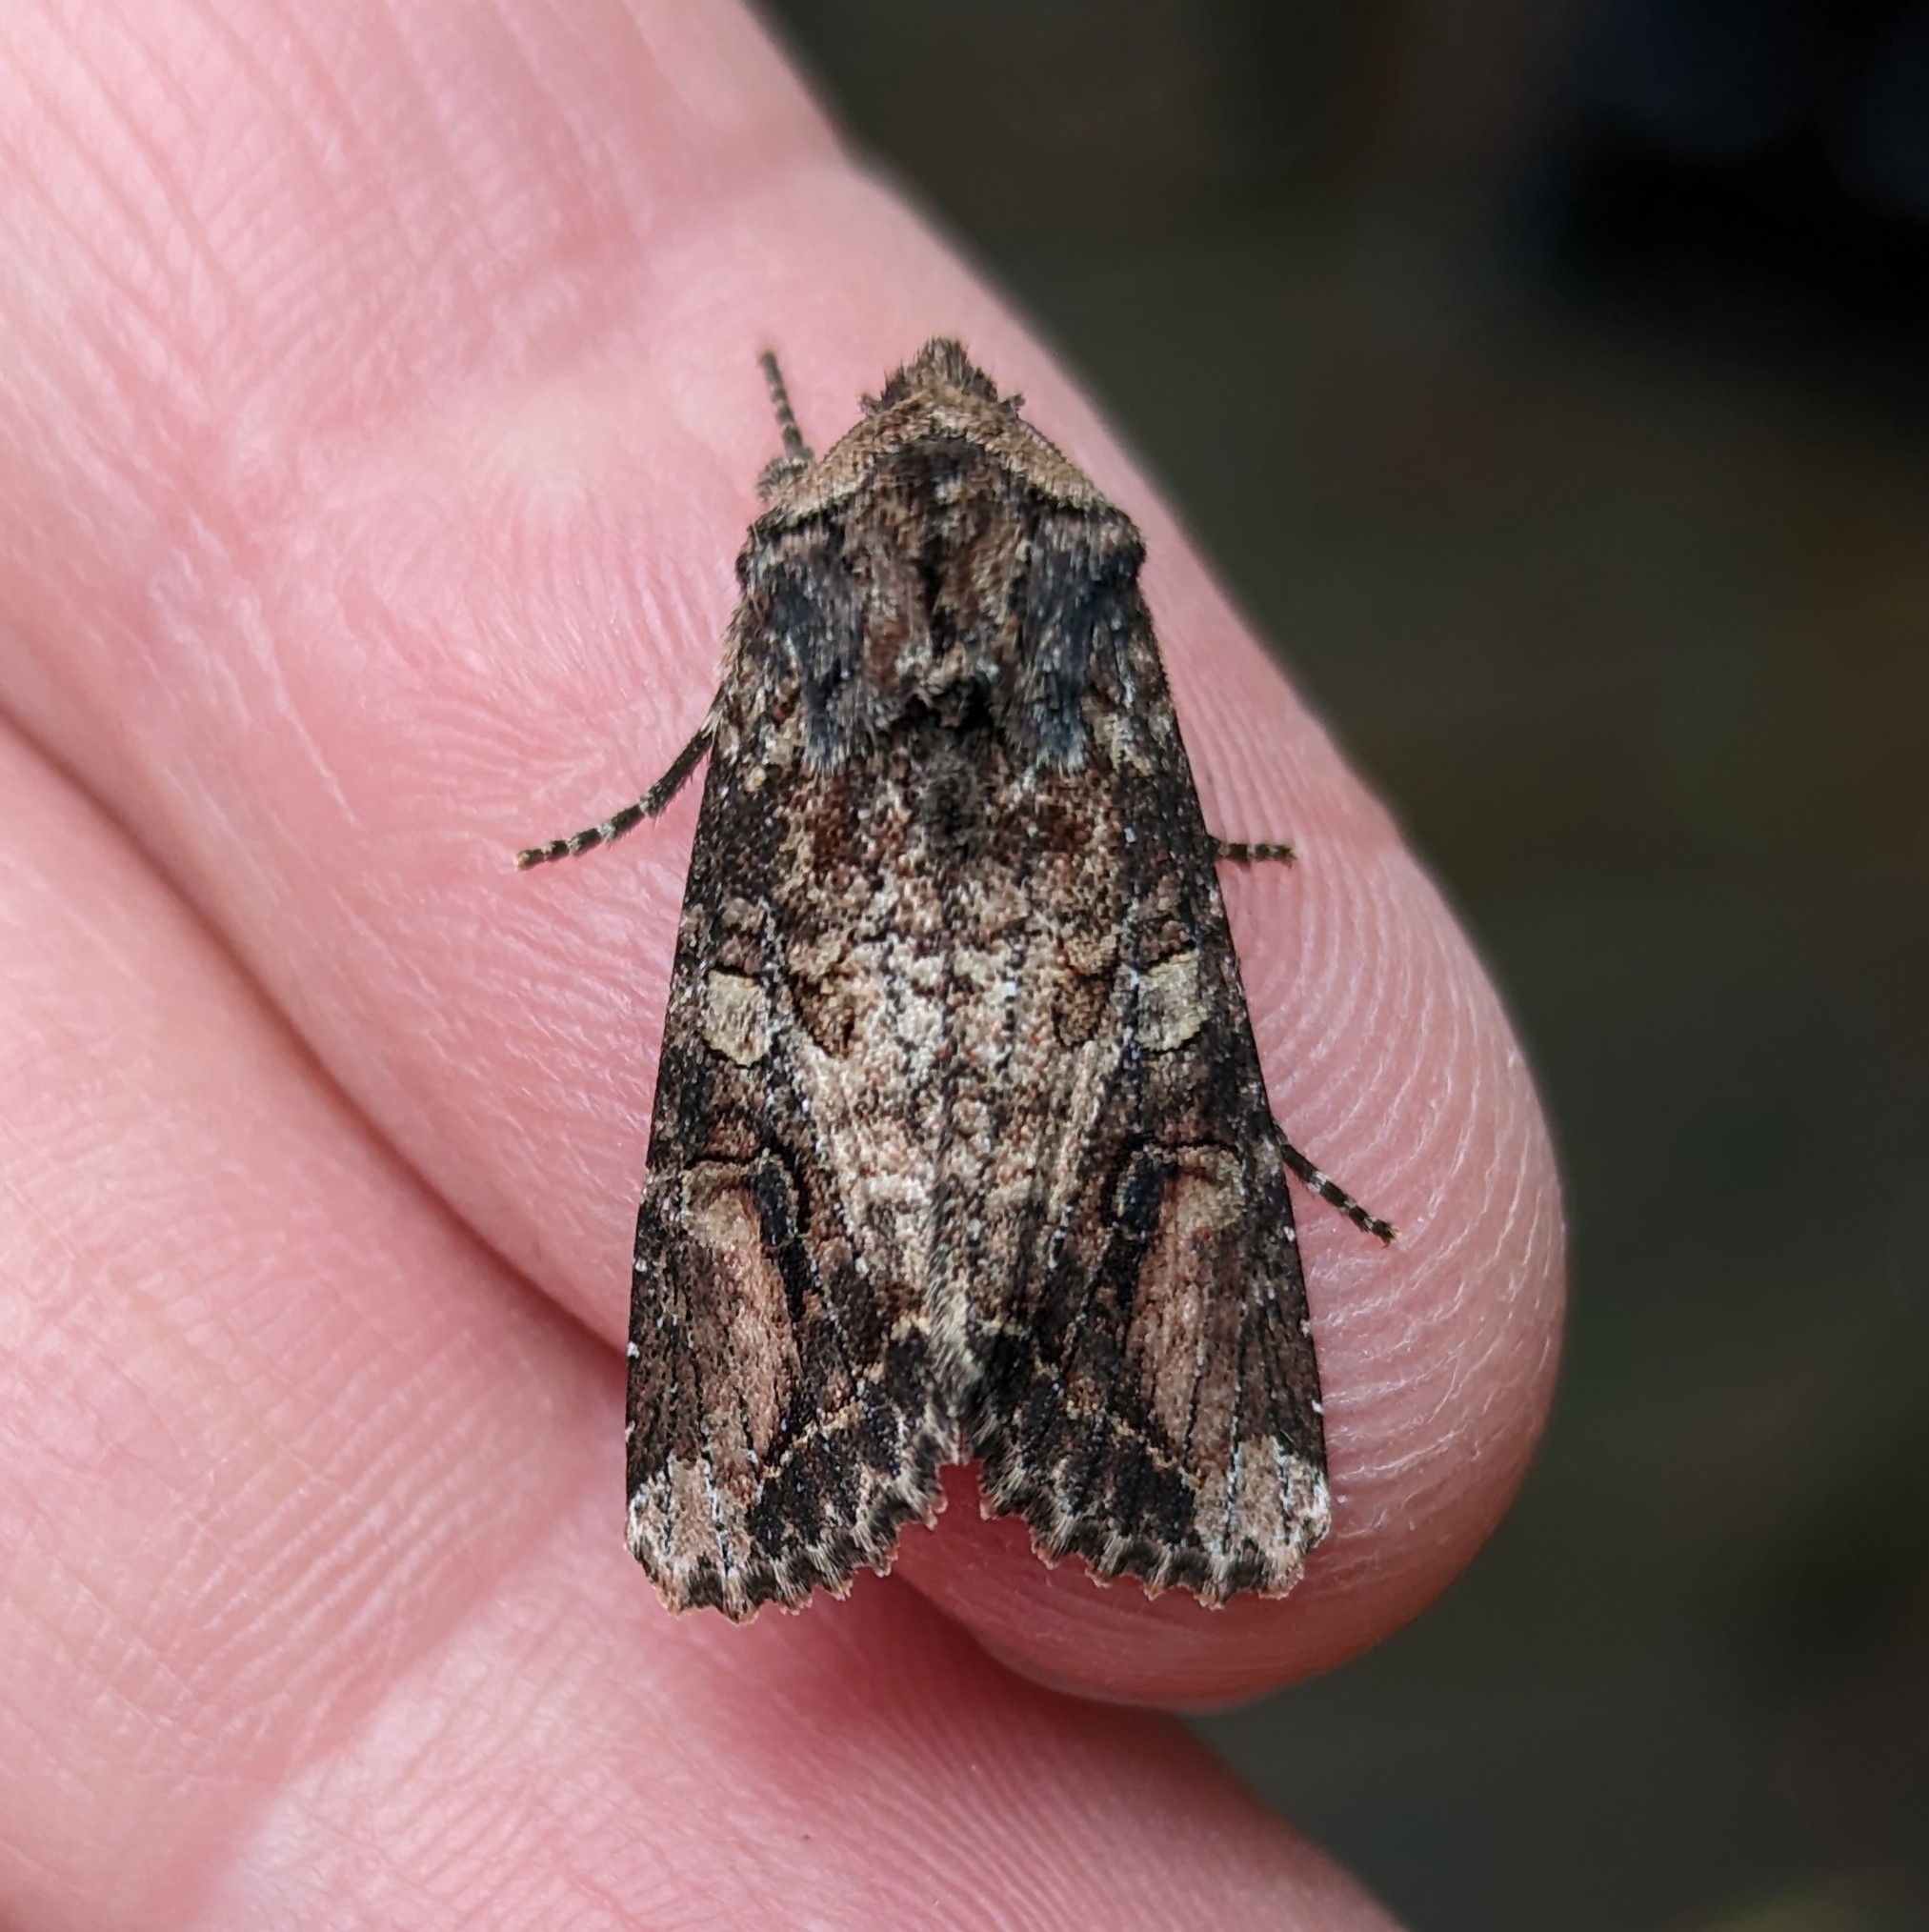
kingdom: Animalia
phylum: Arthropoda
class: Insecta
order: Lepidoptera
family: Noctuidae
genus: Egira
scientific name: Egira perlubens
